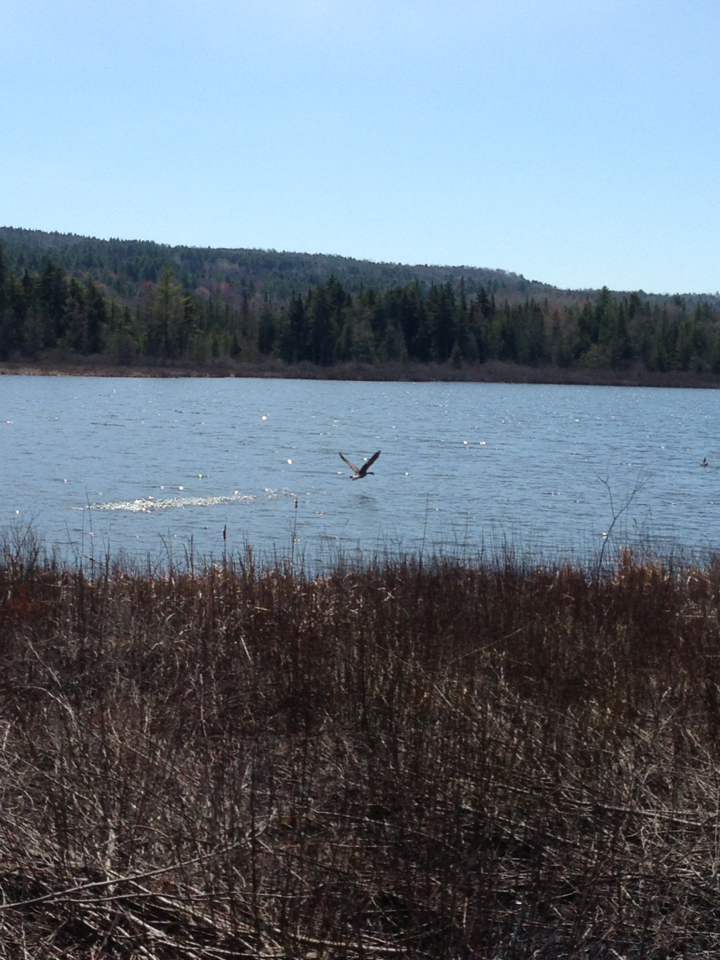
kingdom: Animalia
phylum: Chordata
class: Aves
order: Anseriformes
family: Anatidae
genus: Branta
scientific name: Branta canadensis
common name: Canada goose
